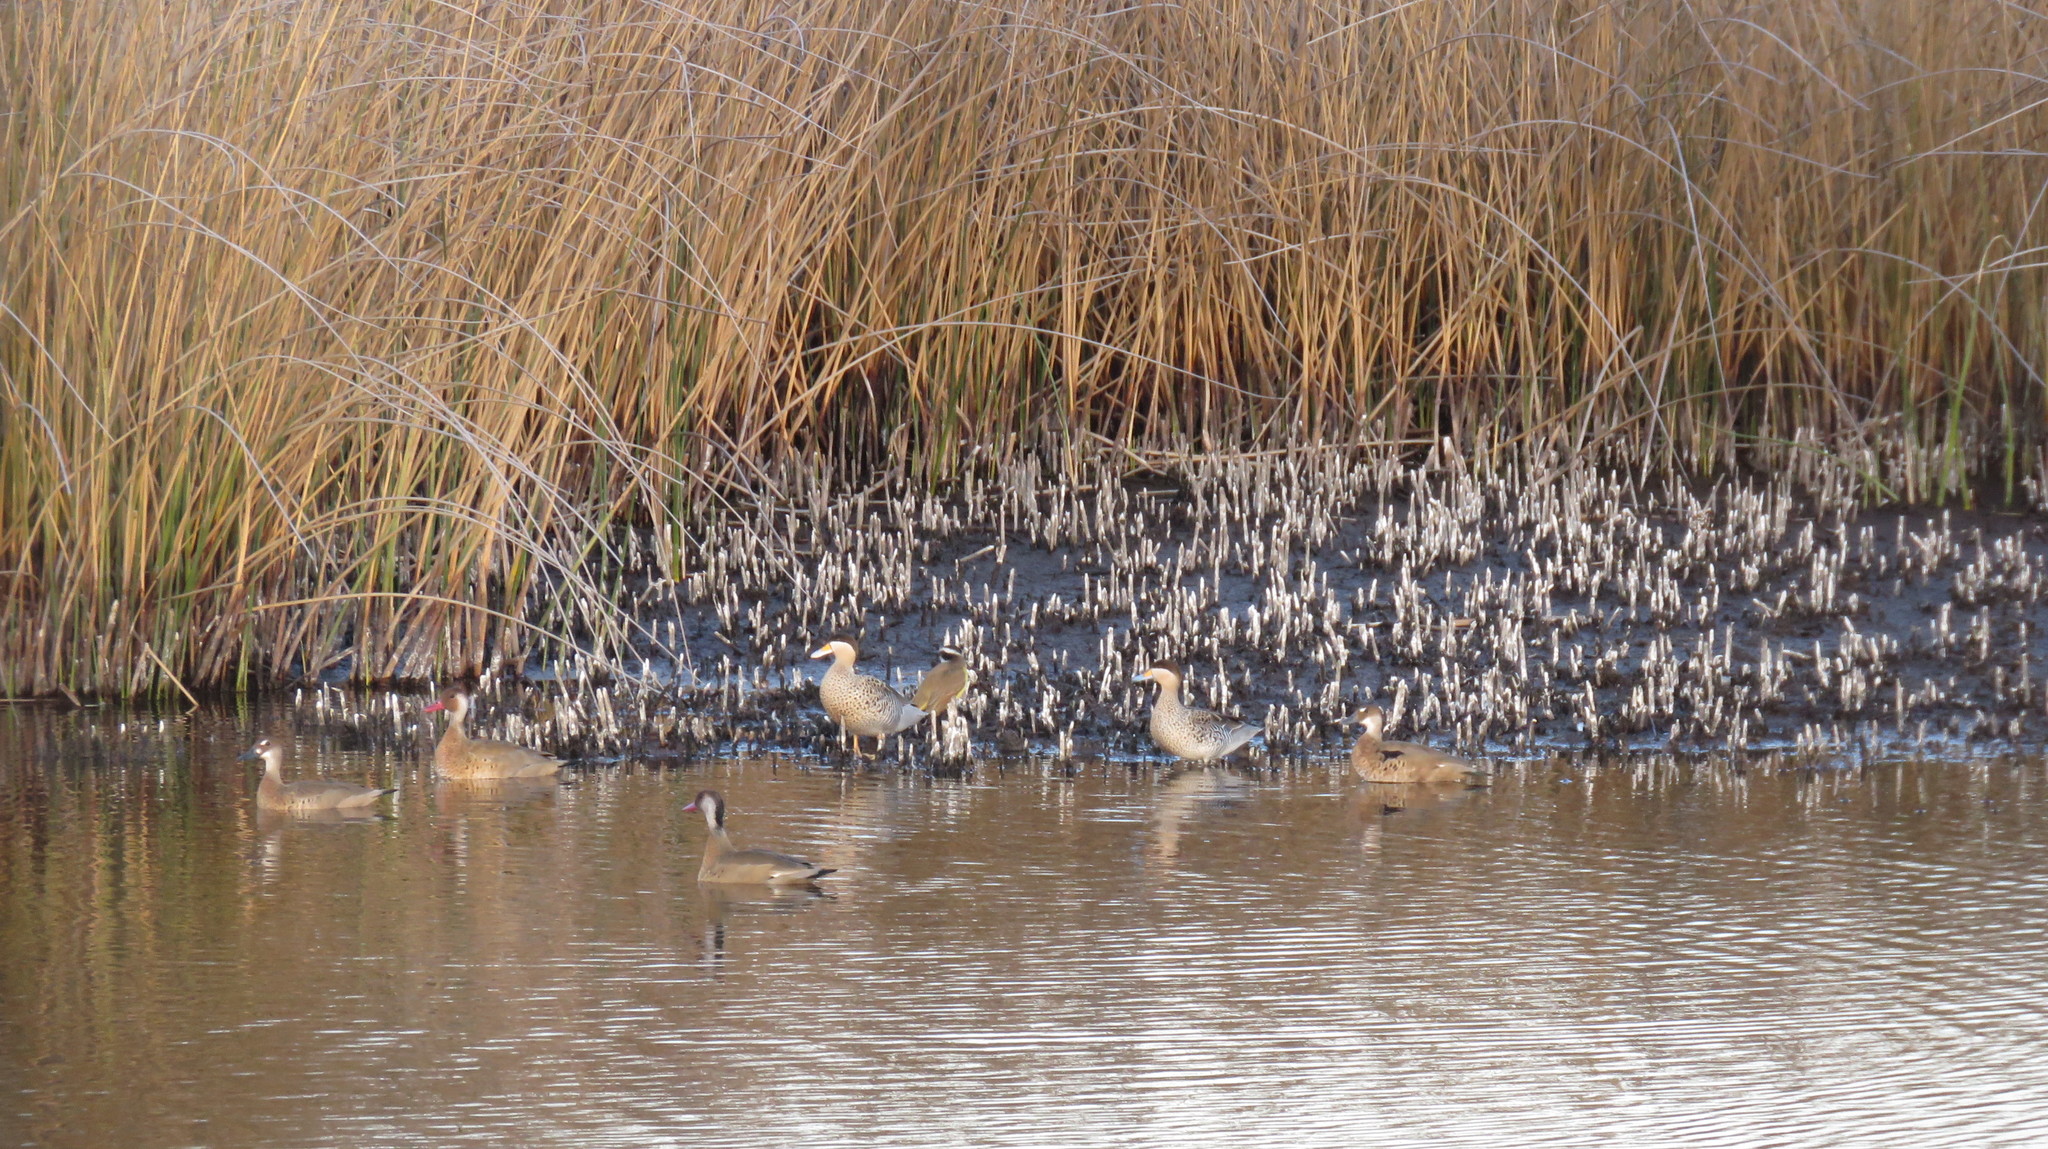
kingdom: Animalia
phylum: Chordata
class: Aves
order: Anseriformes
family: Anatidae
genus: Spatula
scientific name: Spatula versicolor
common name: Silver teal
